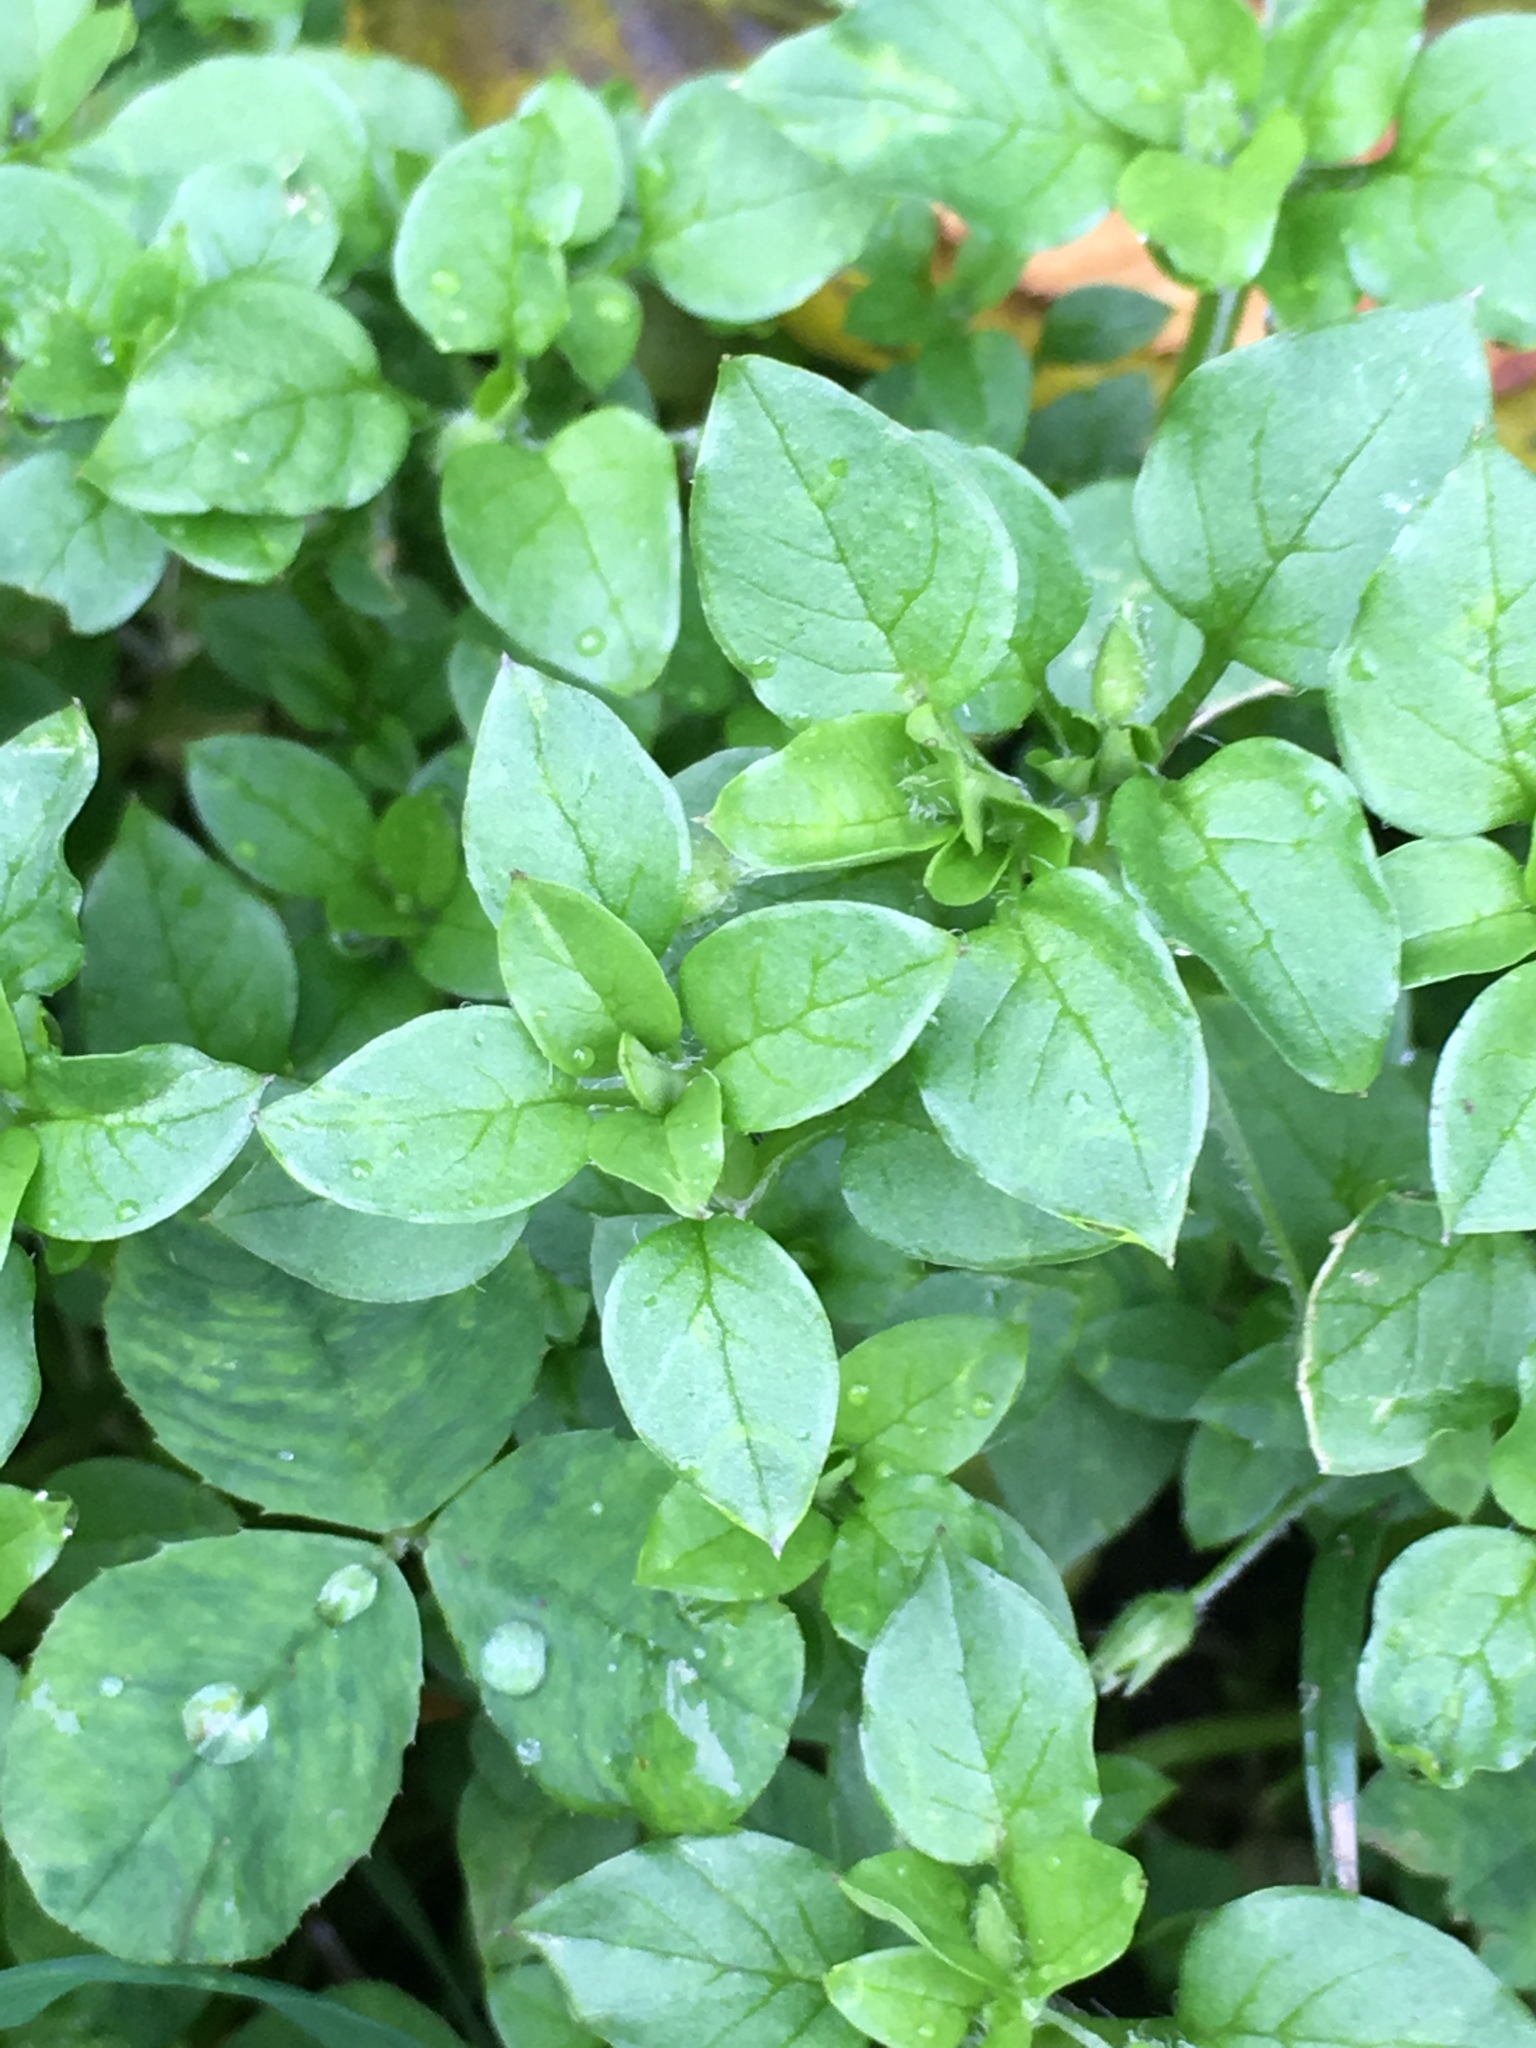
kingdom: Plantae
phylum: Tracheophyta
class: Magnoliopsida
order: Caryophyllales
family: Caryophyllaceae
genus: Stellaria
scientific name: Stellaria media
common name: Common chickweed
